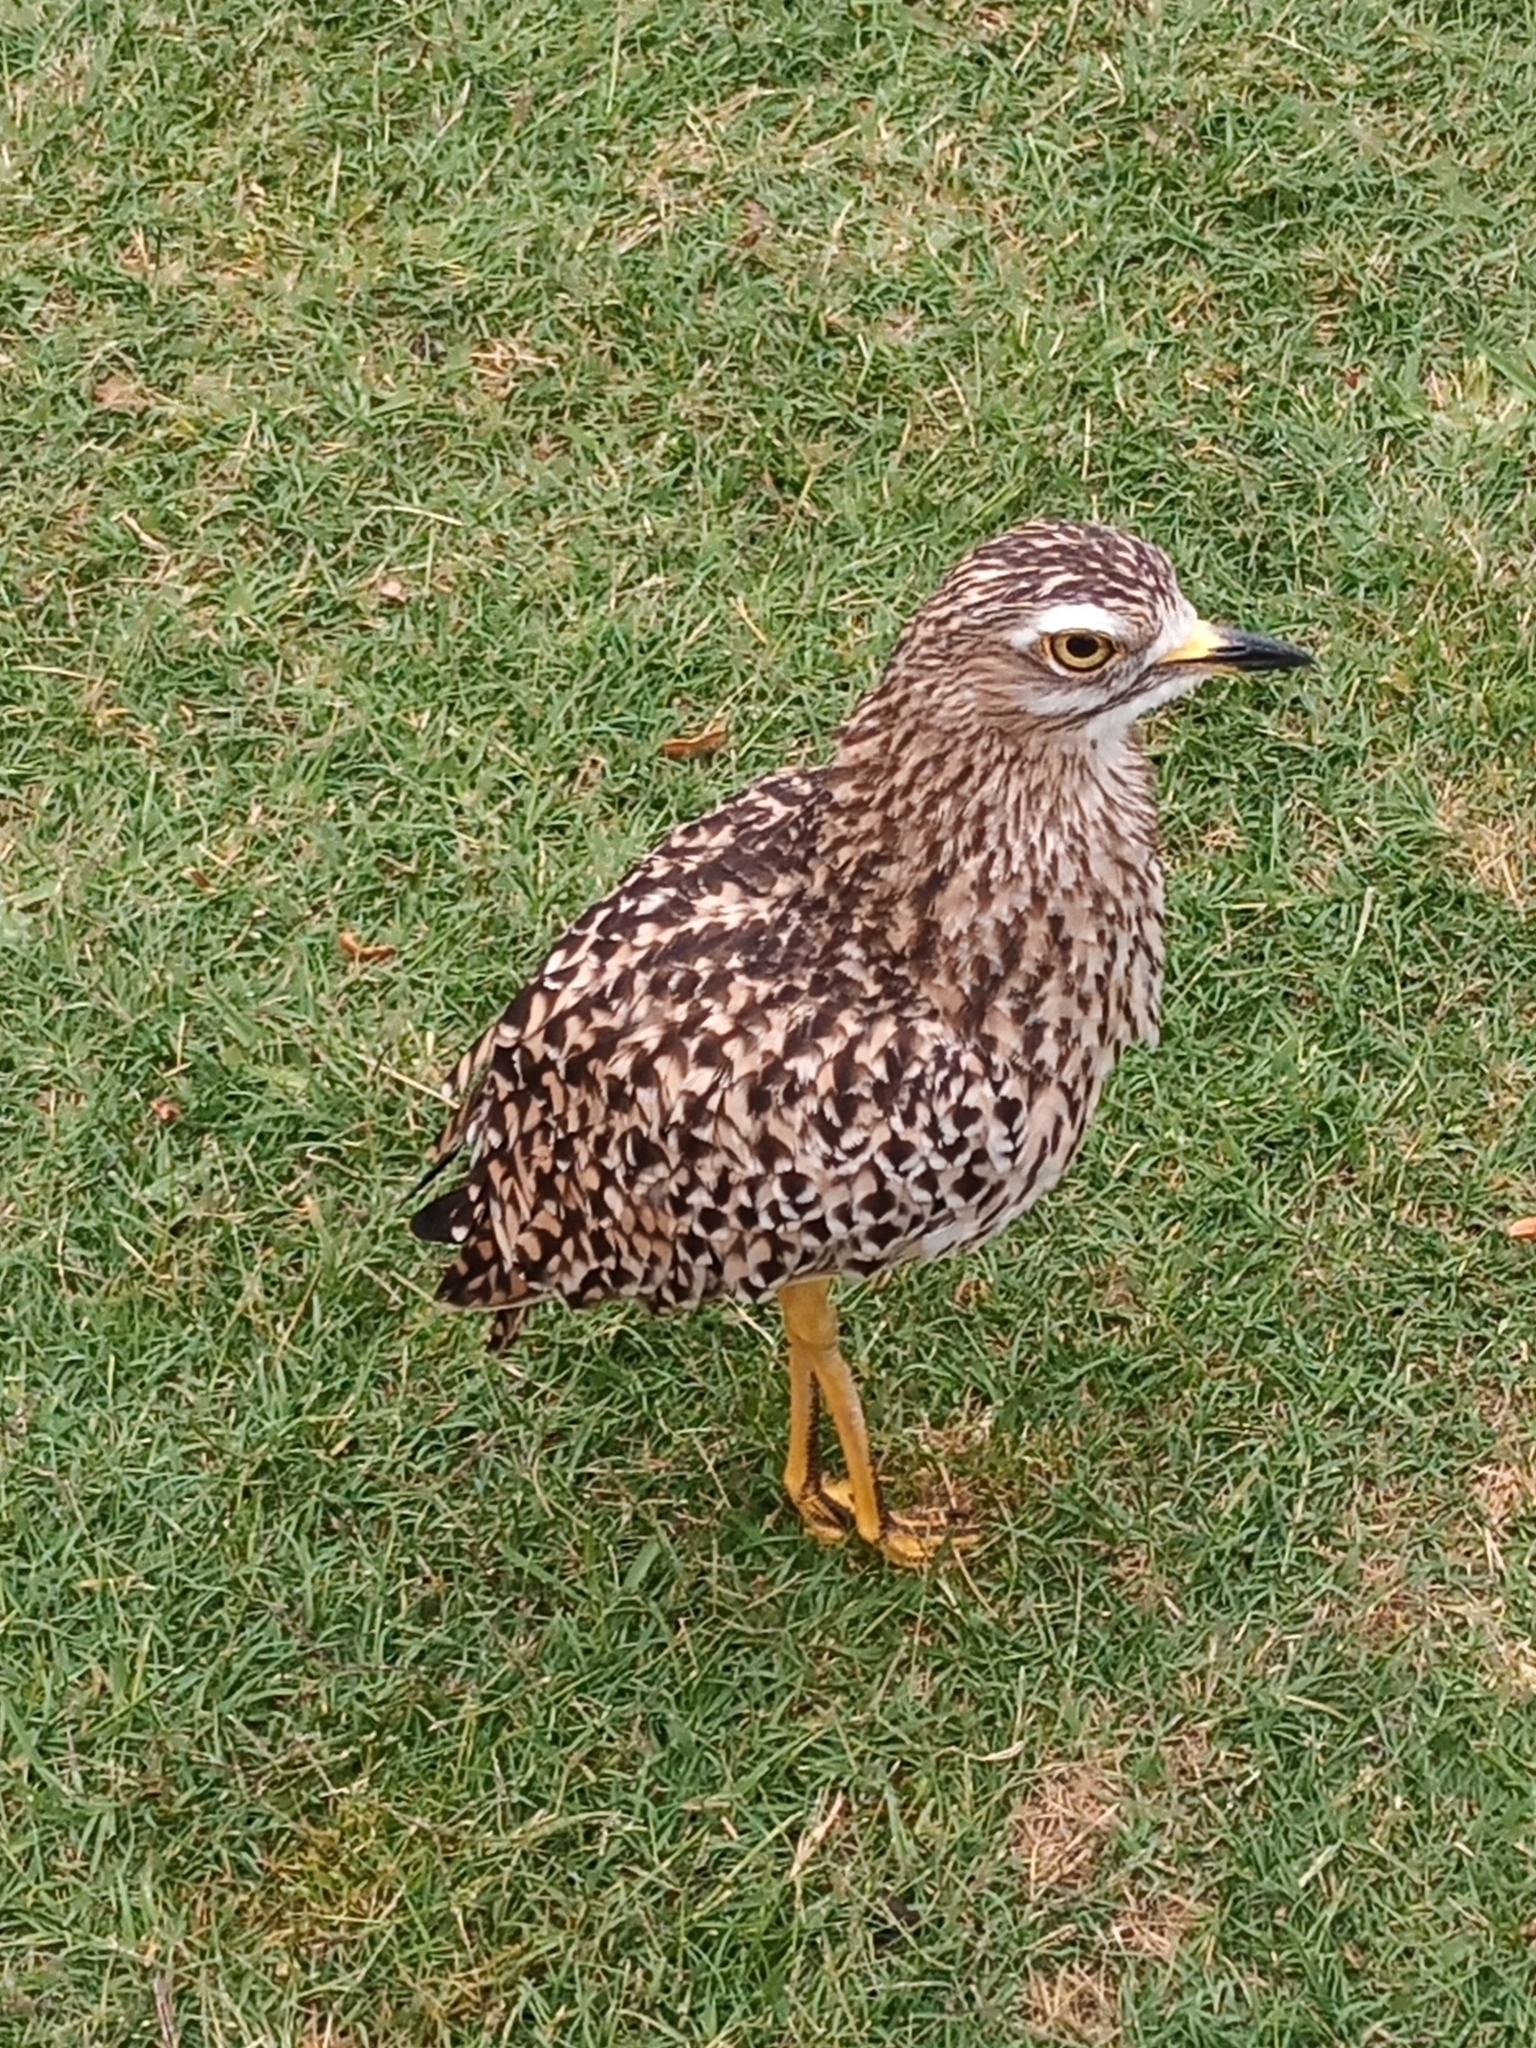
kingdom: Animalia
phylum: Chordata
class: Aves
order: Charadriiformes
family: Burhinidae
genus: Burhinus
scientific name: Burhinus capensis
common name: Spotted thick-knee
